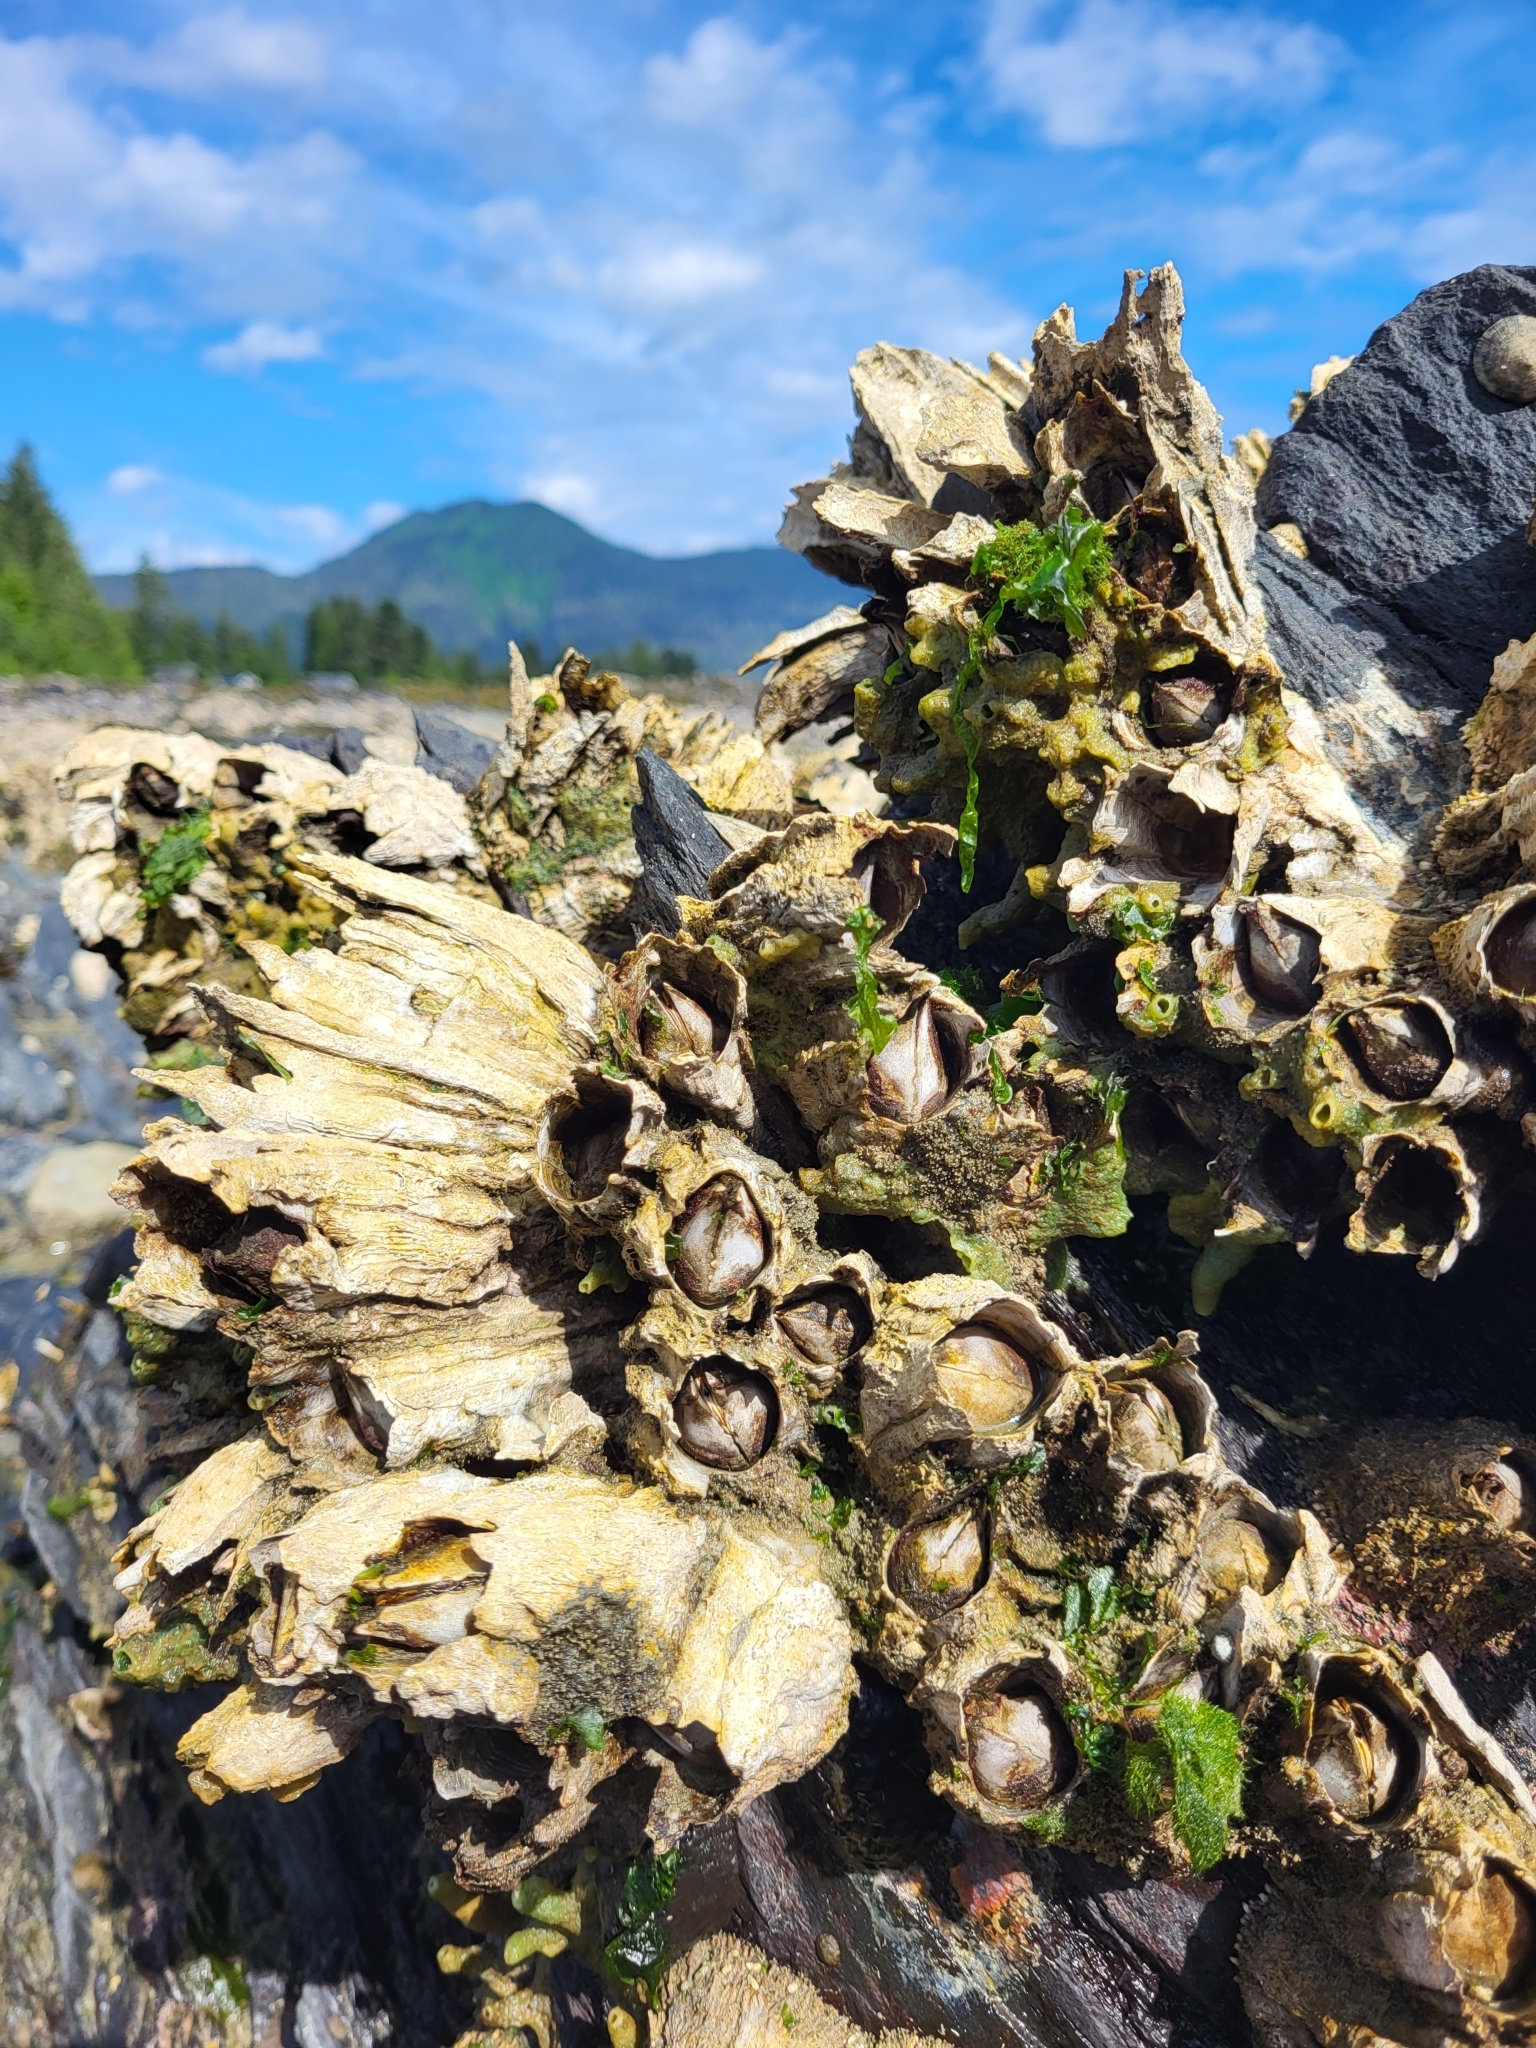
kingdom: Animalia
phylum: Arthropoda
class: Maxillopoda
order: Sessilia
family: Archaeobalanidae
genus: Semibalanus
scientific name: Semibalanus cariosus
